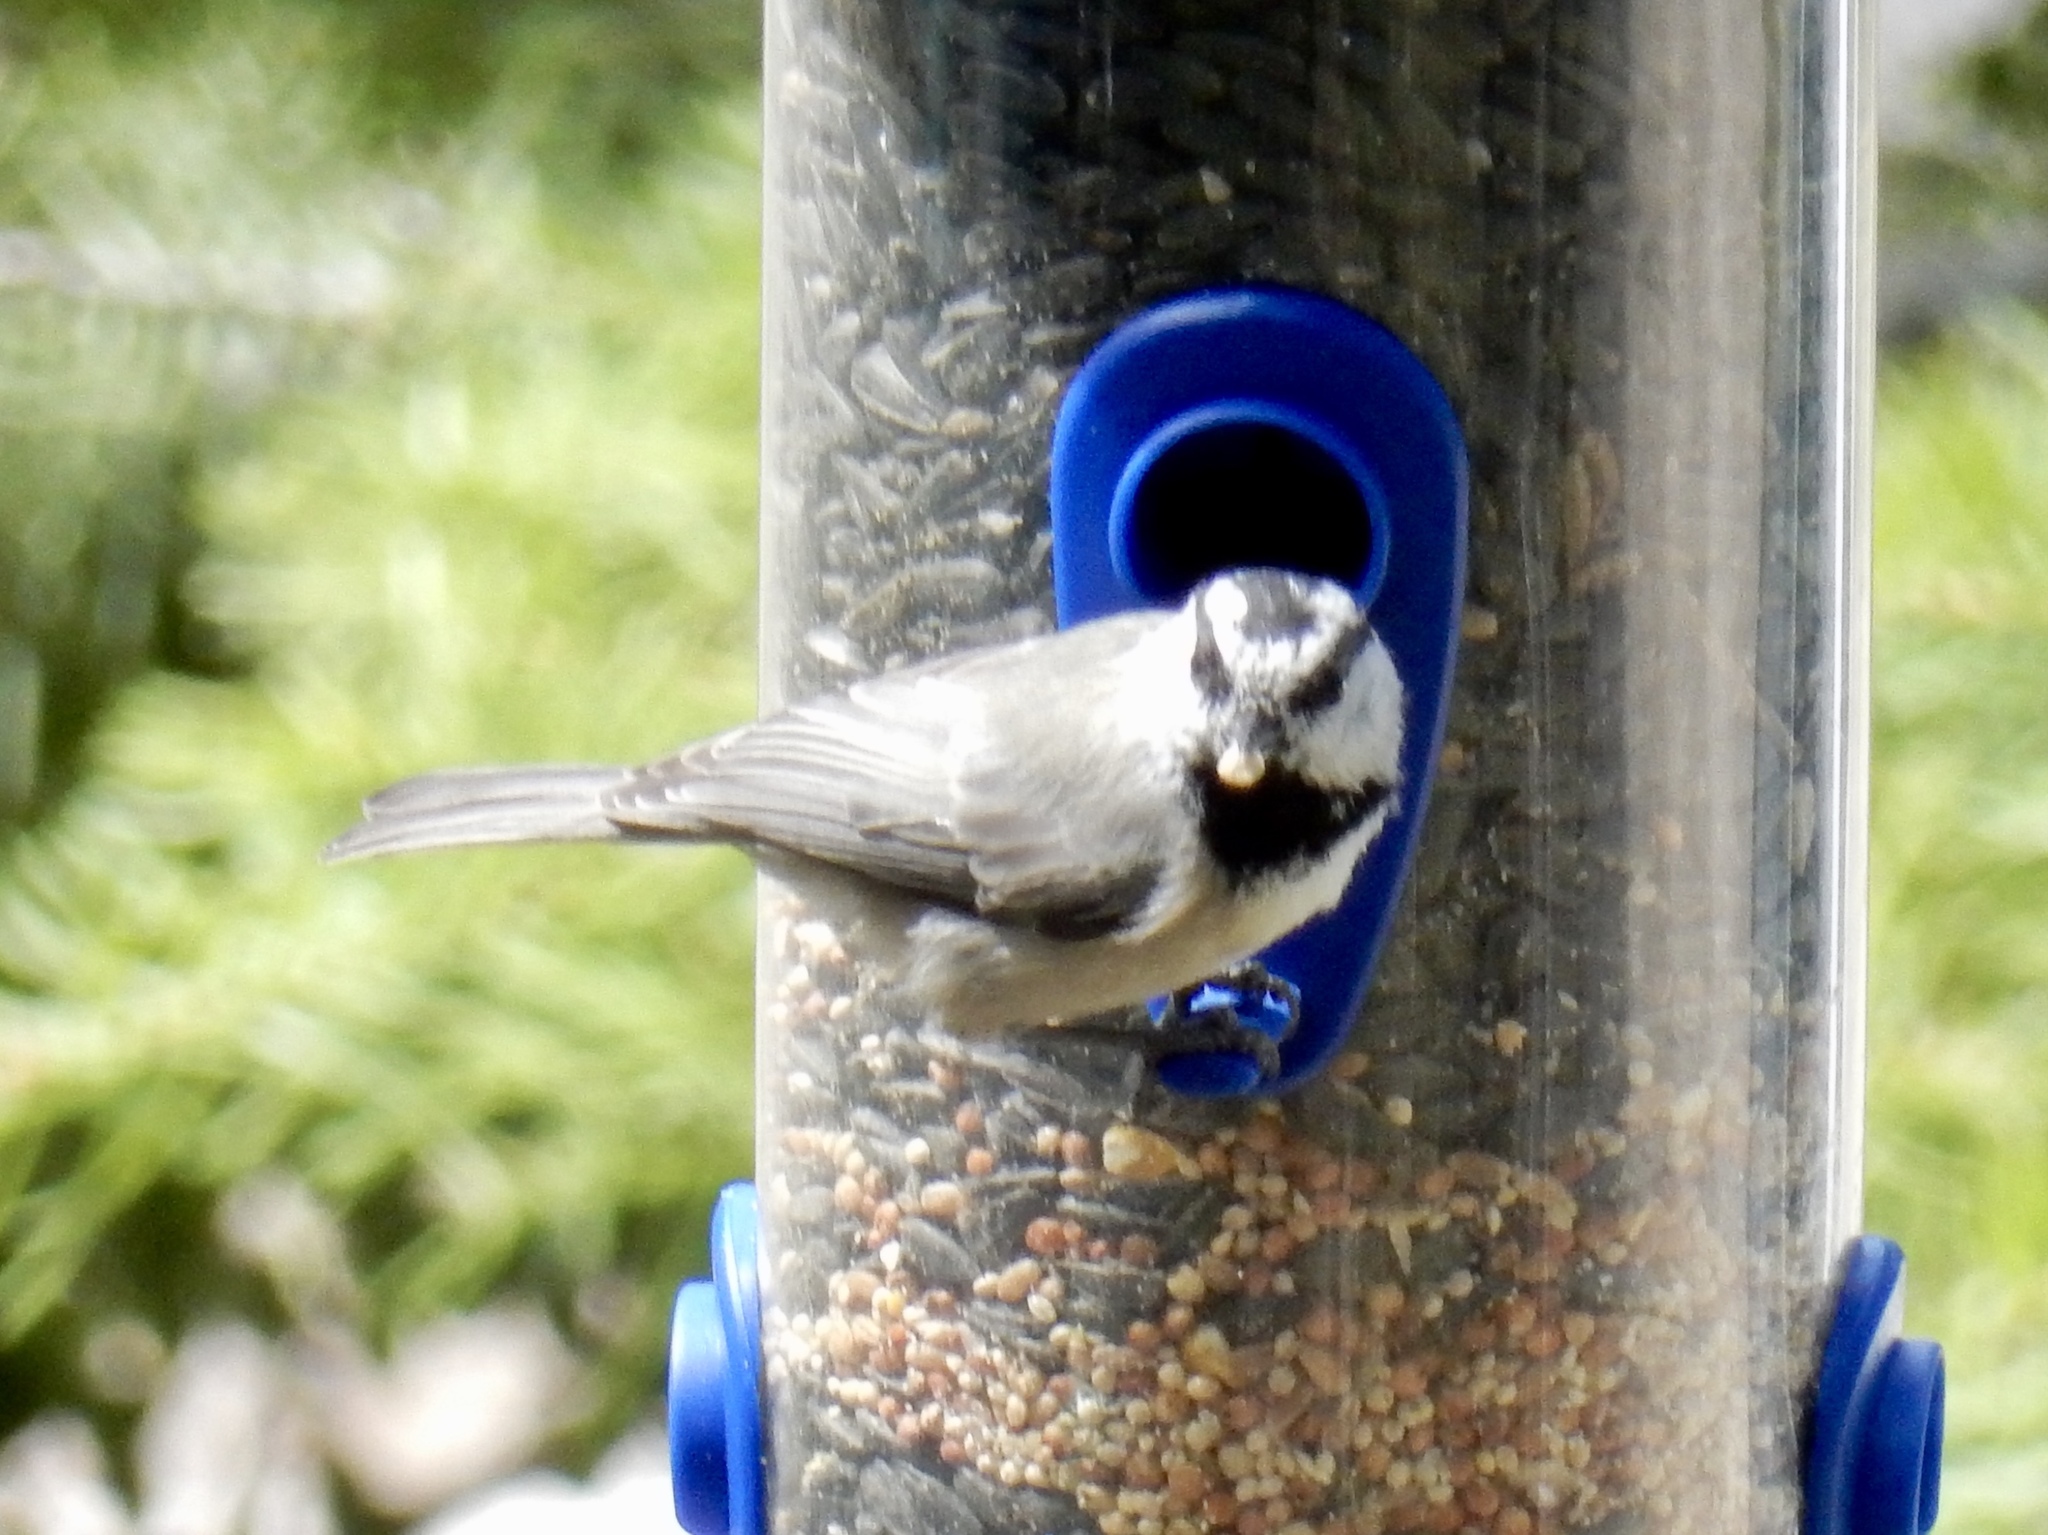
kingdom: Animalia
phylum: Chordata
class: Aves
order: Passeriformes
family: Paridae
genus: Poecile
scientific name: Poecile gambeli
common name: Mountain chickadee
